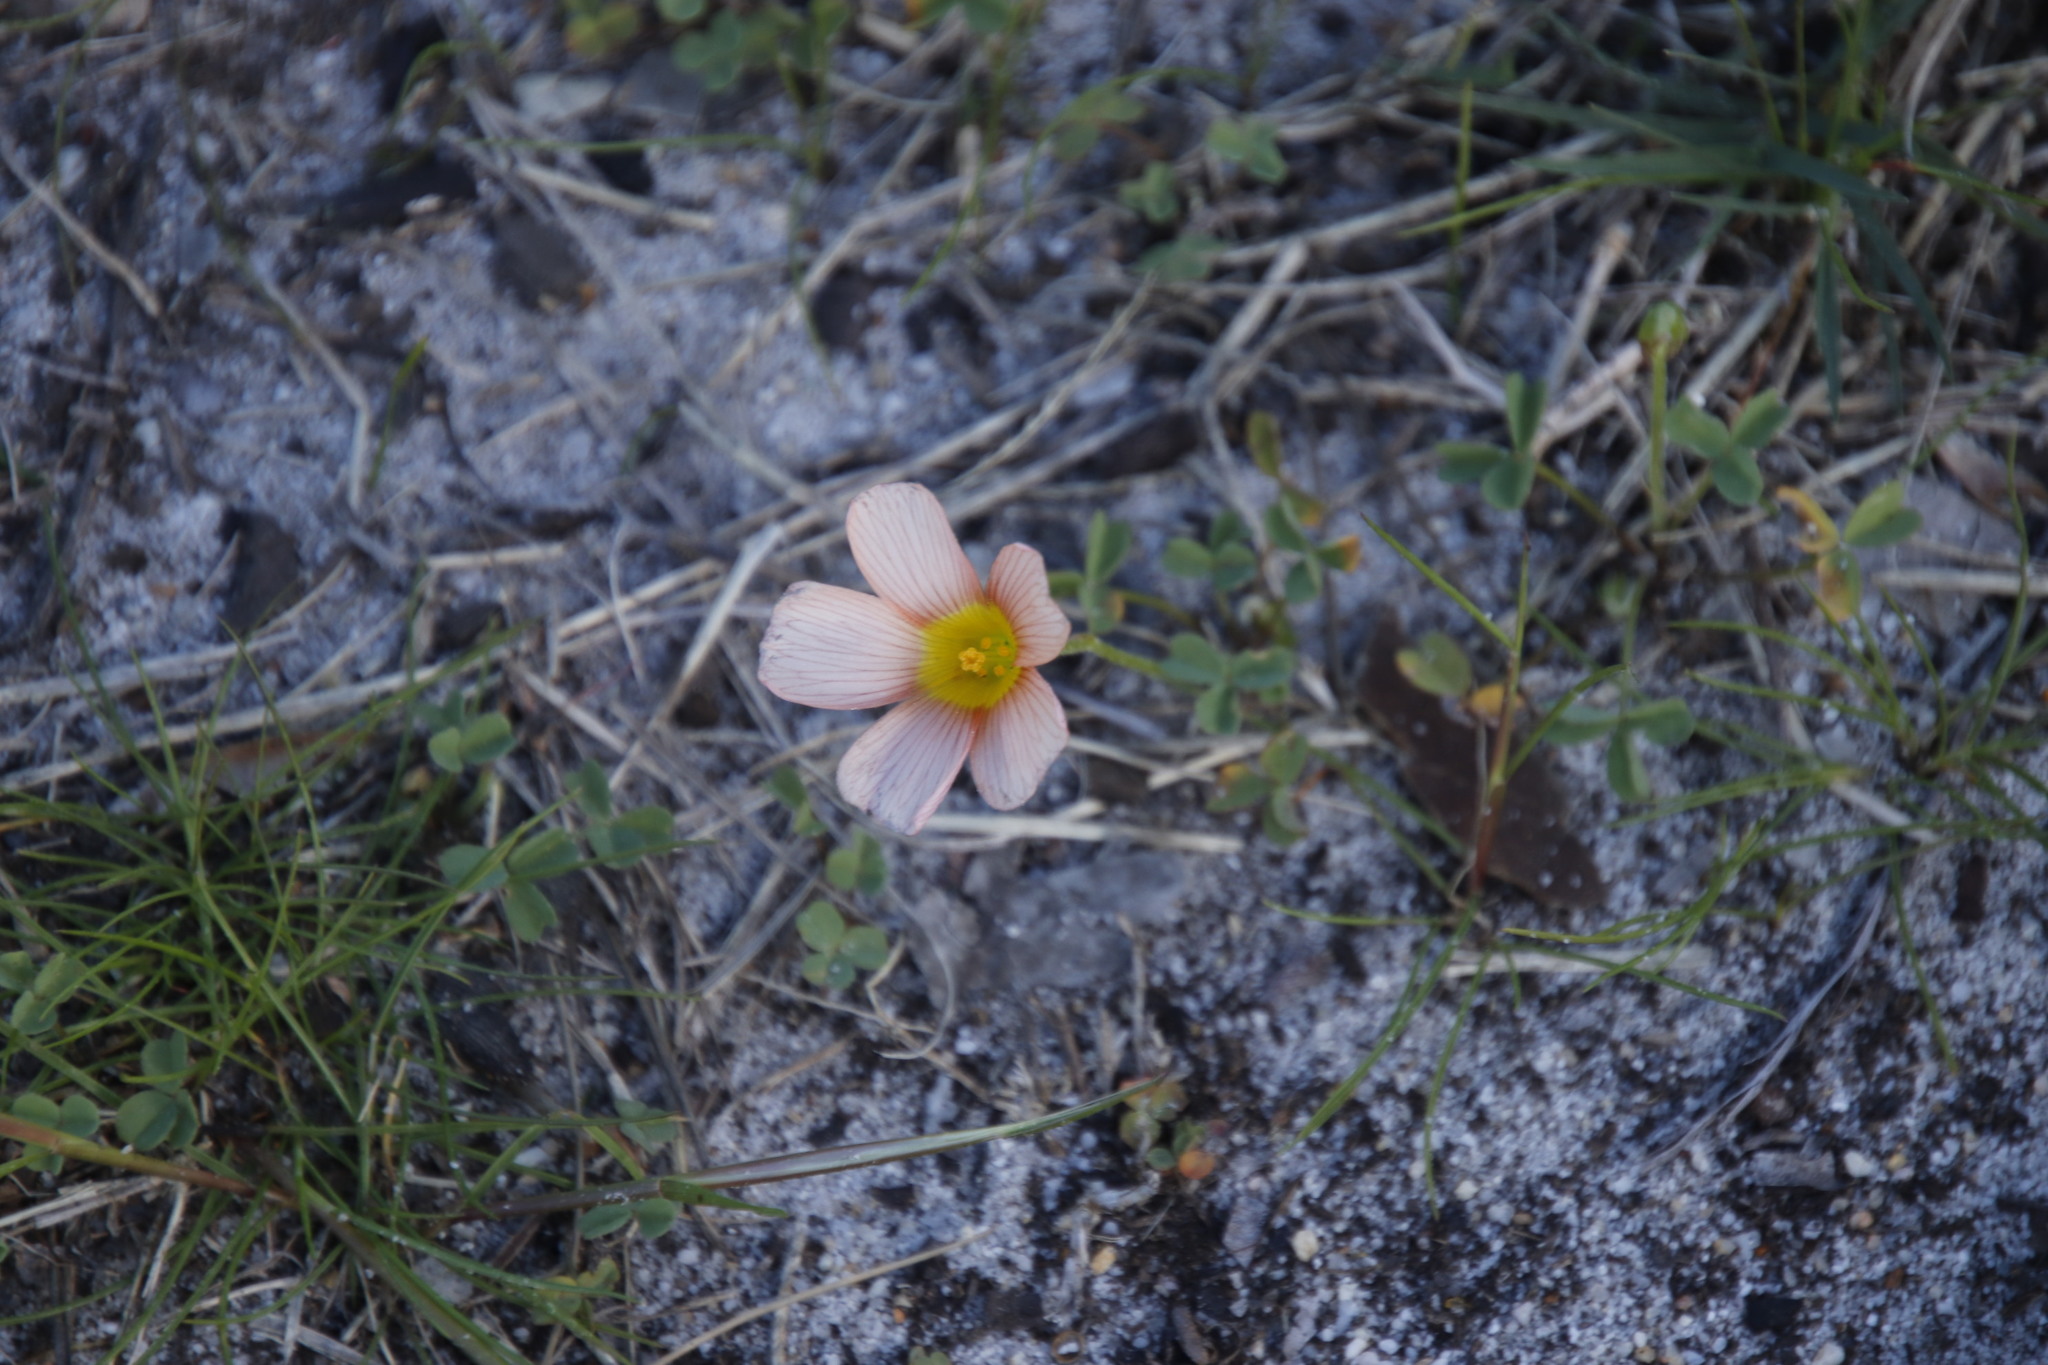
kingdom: Plantae
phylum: Tracheophyta
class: Magnoliopsida
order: Oxalidales
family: Oxalidaceae
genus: Oxalis
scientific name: Oxalis obtusa
